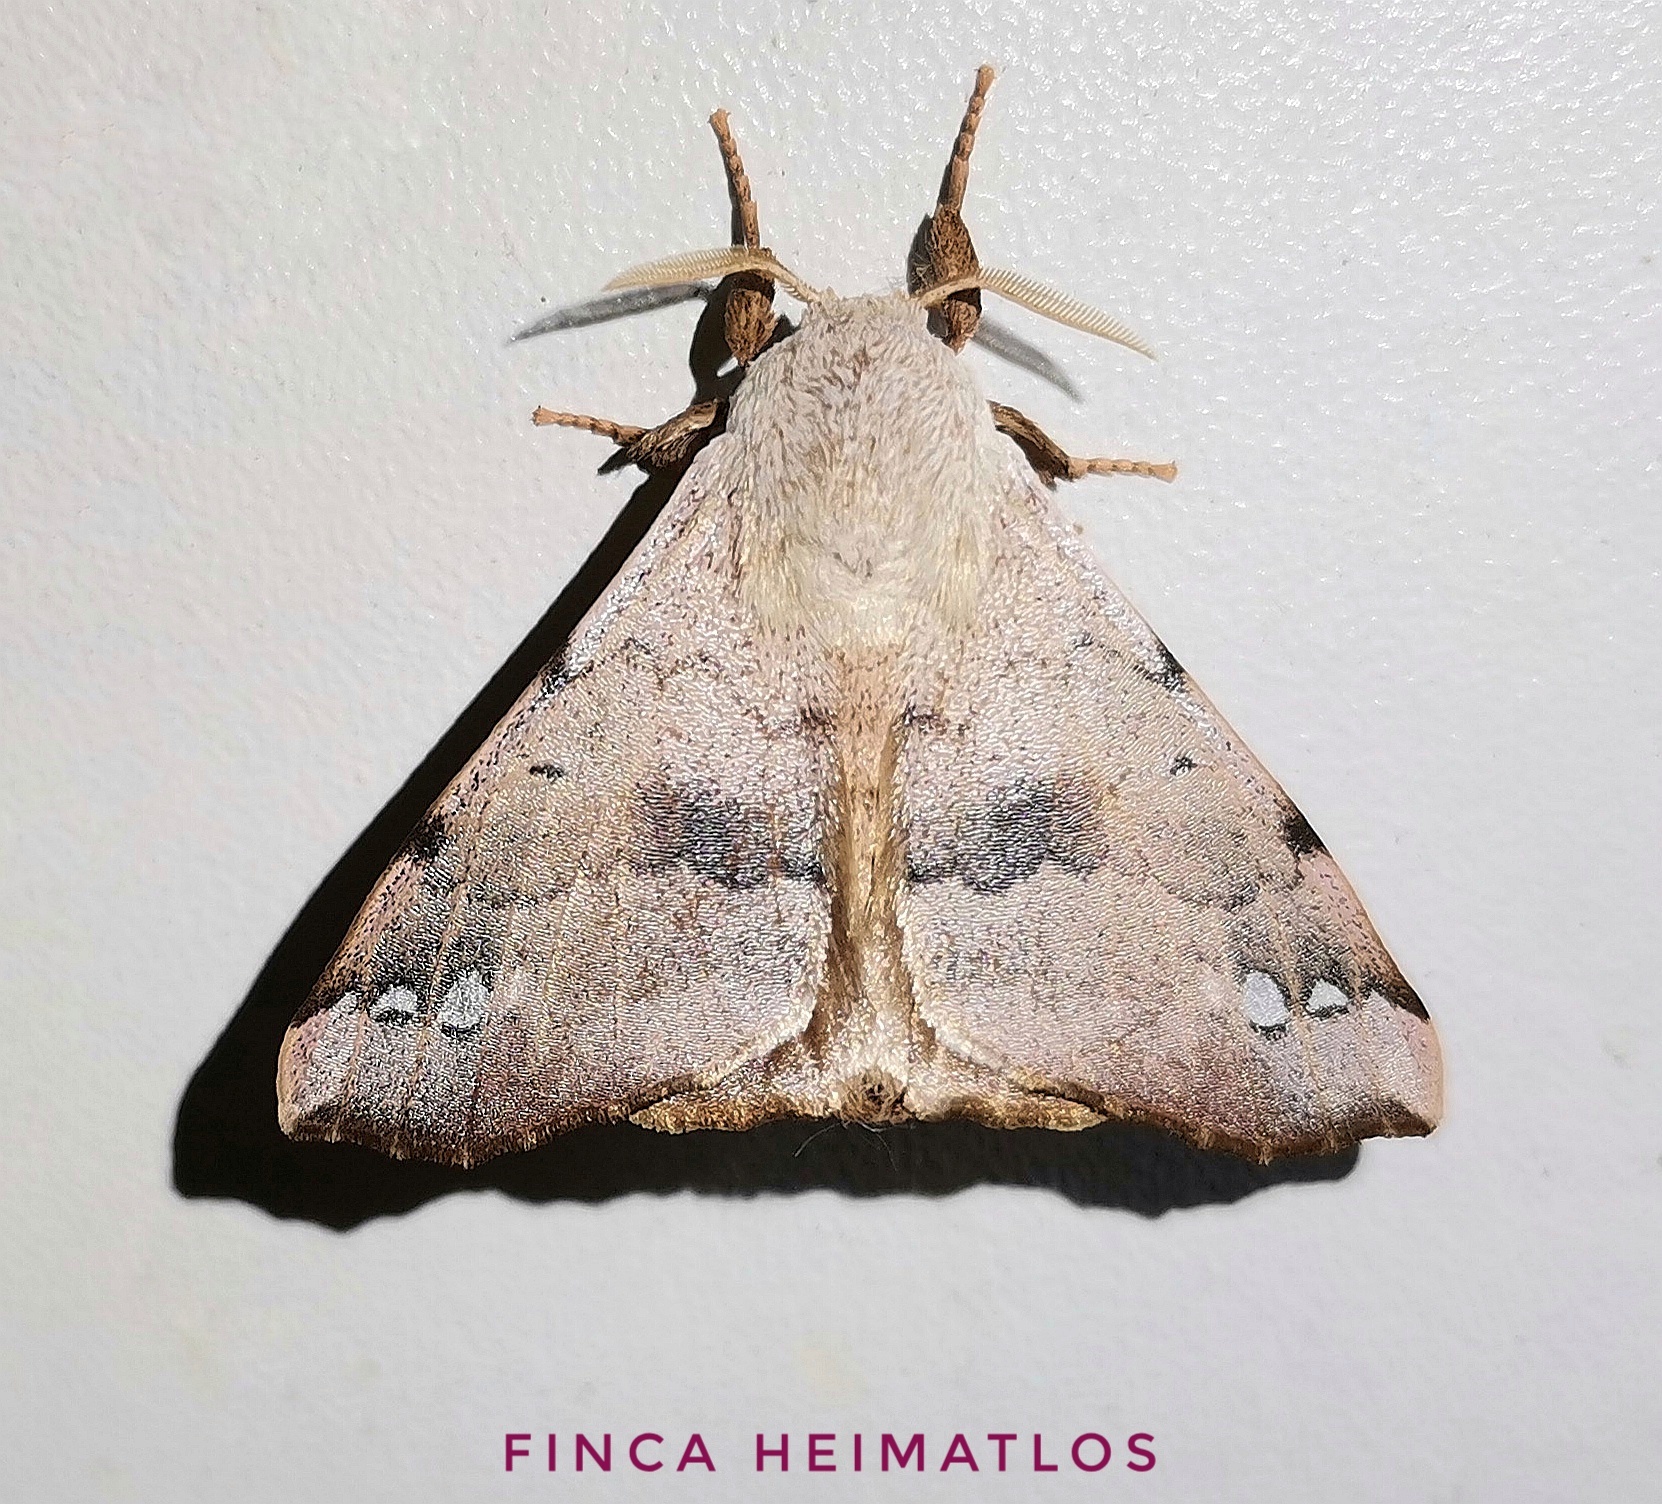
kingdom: Animalia
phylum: Arthropoda
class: Insecta
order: Lepidoptera
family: Apatelodidae
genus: Hygrochroa
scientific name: Hygrochroa Apatelodes anna
